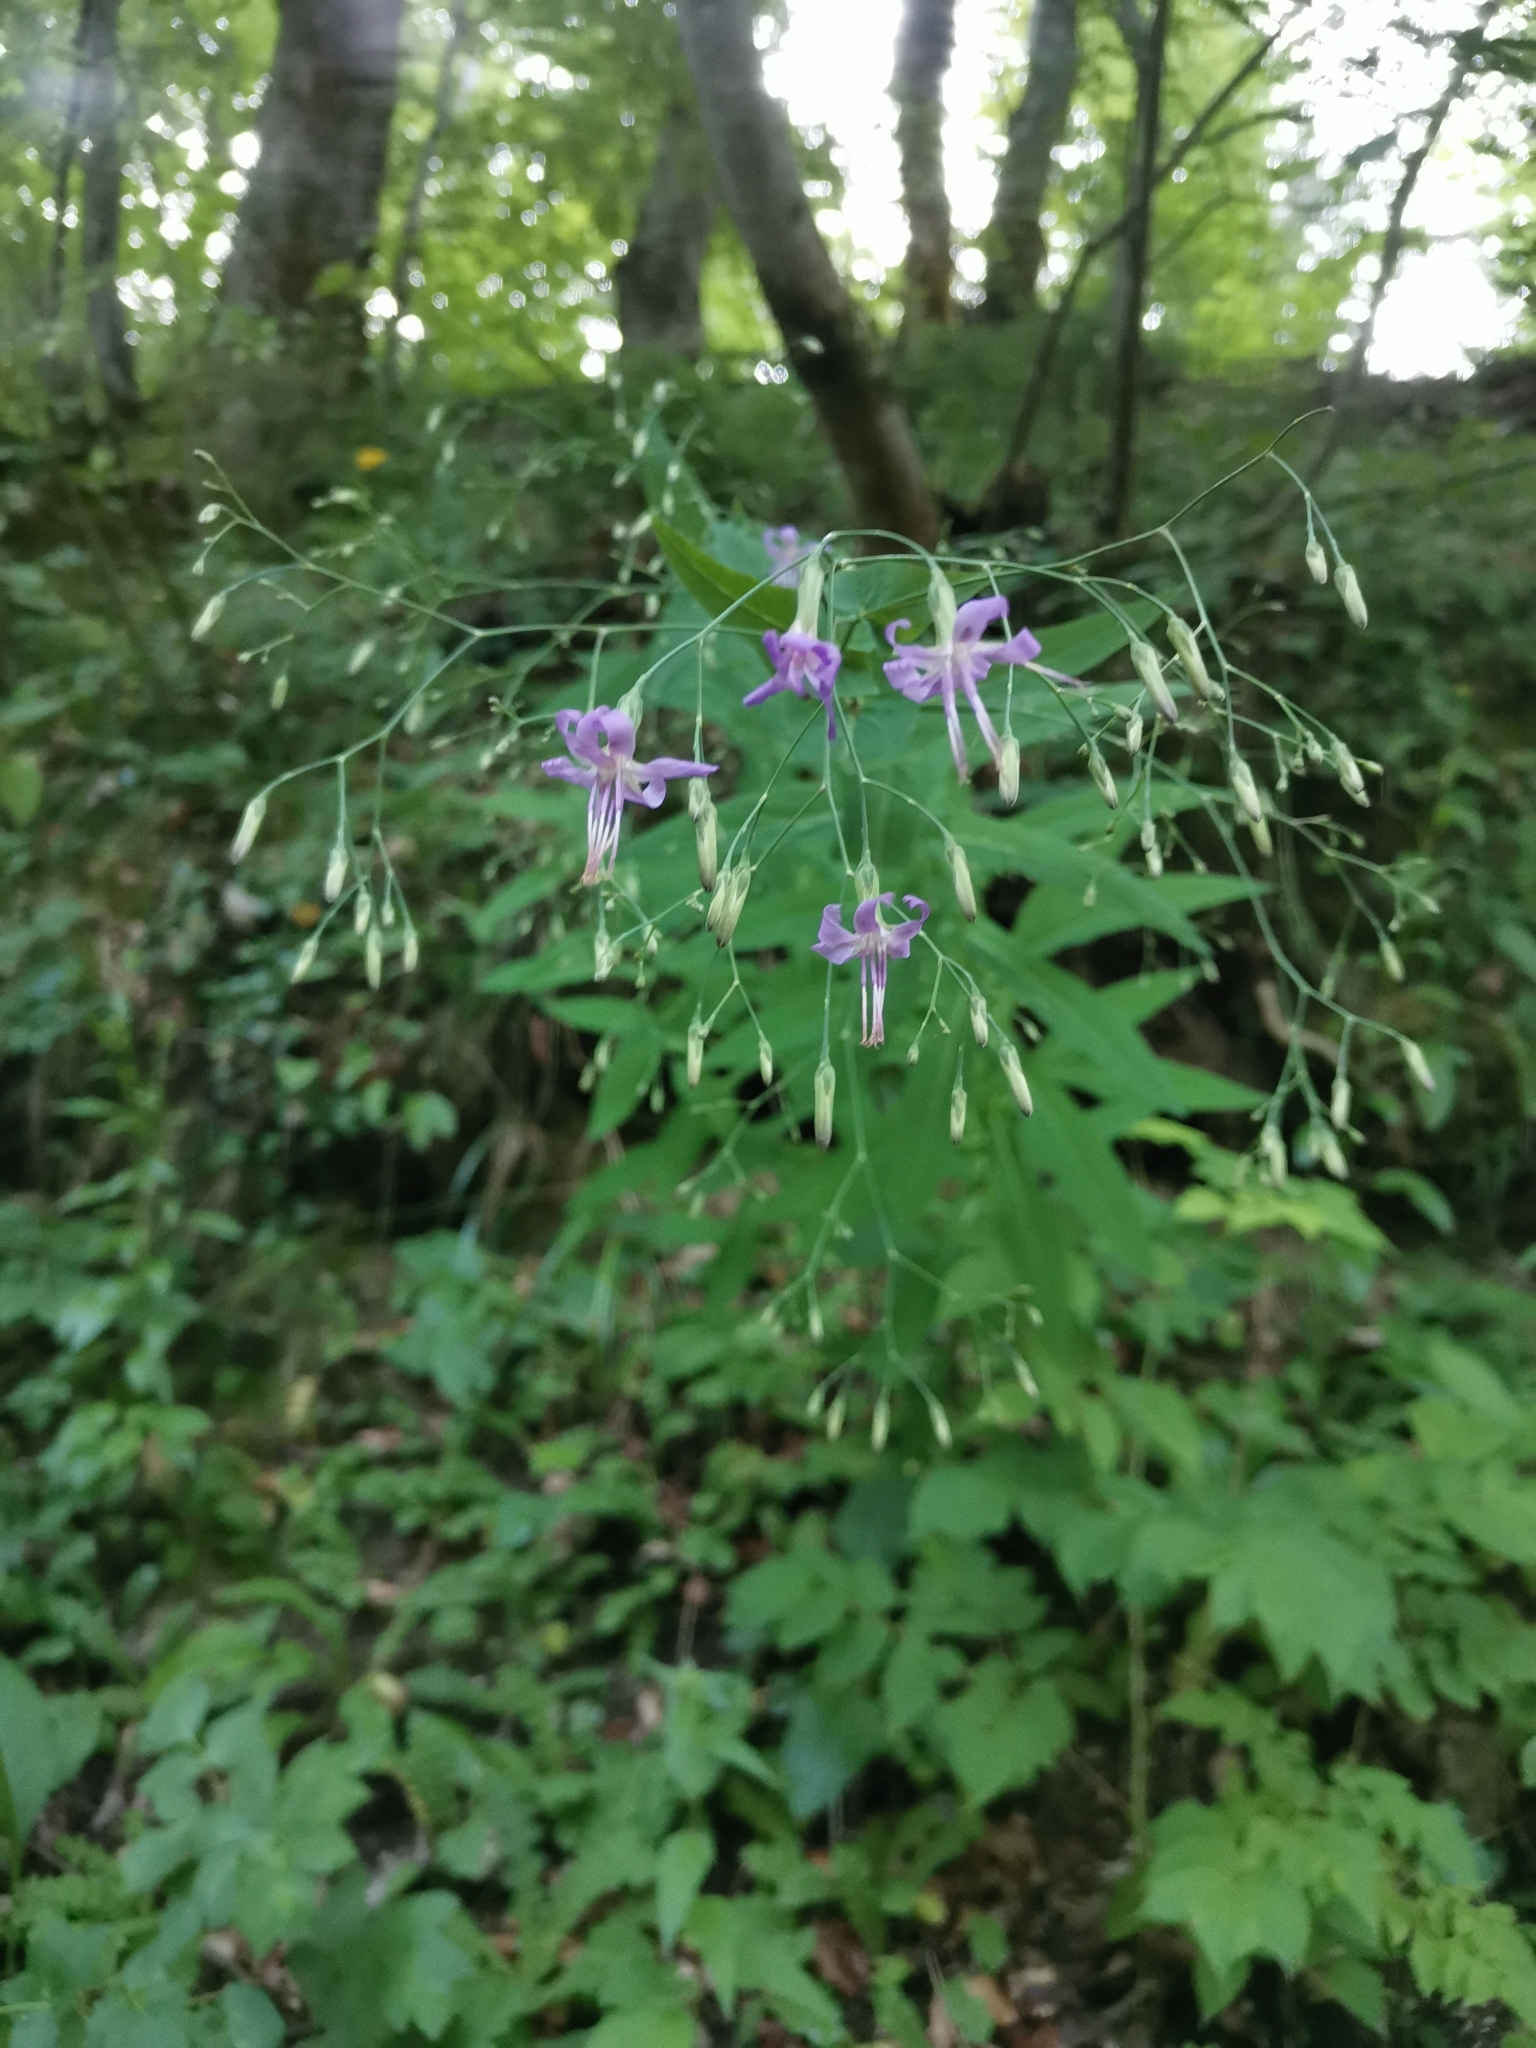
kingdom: Plantae
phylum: Tracheophyta
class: Magnoliopsida
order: Asterales
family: Asteraceae
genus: Prenanthes
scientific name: Prenanthes purpurea
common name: Purple lettuce
